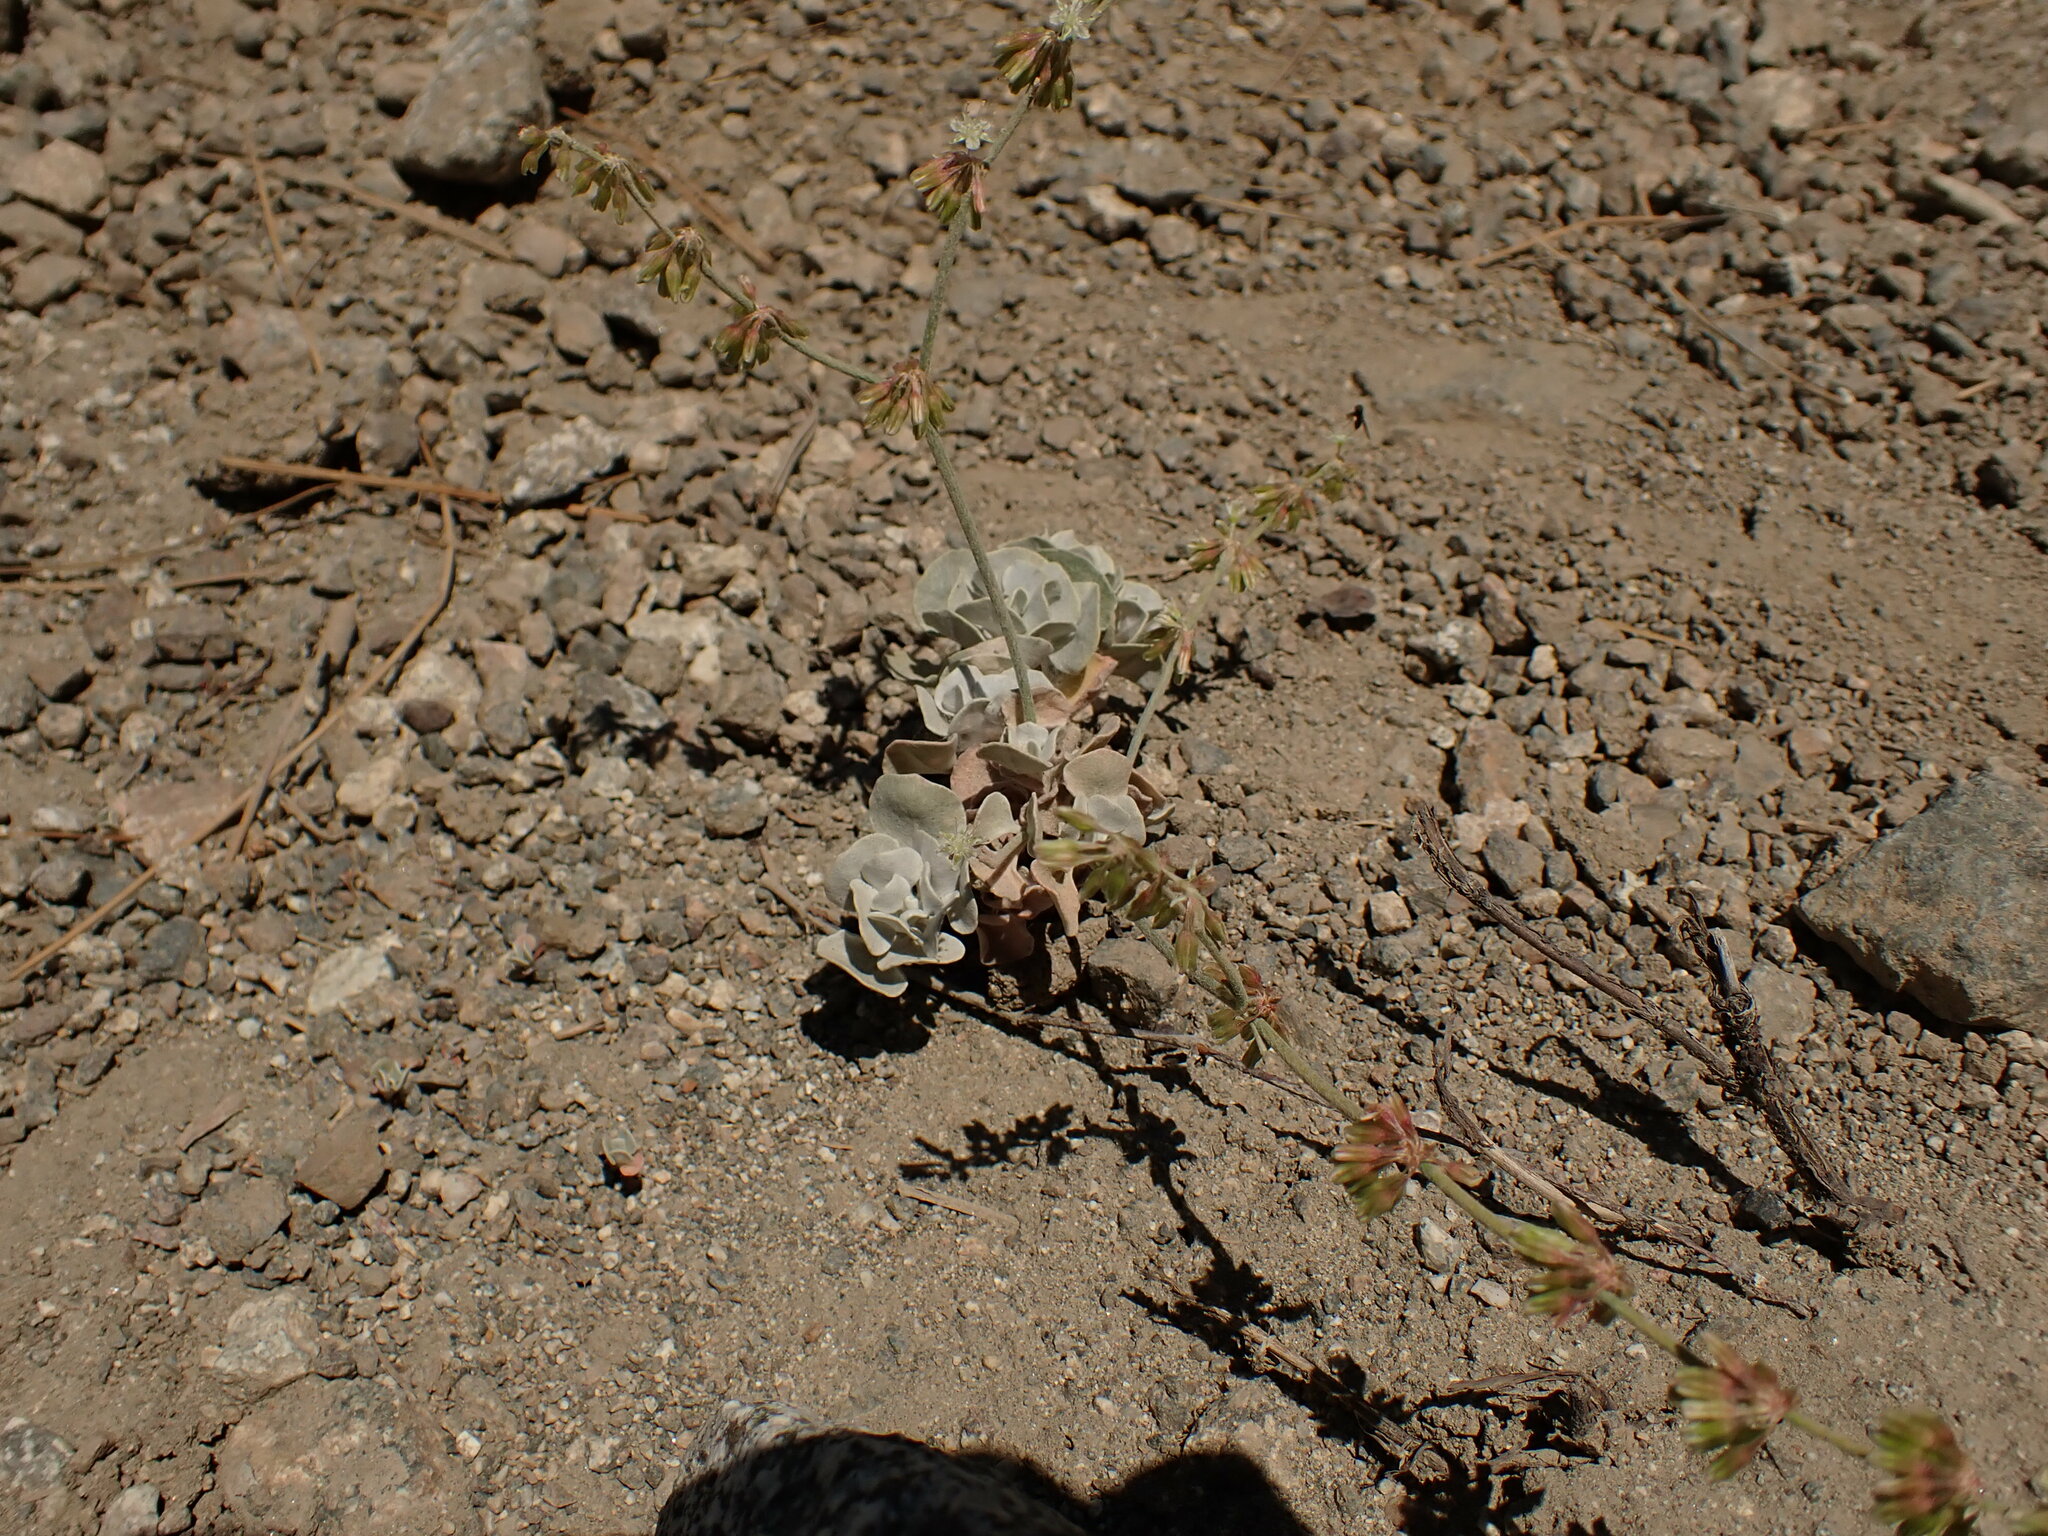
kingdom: Plantae
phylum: Tracheophyta
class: Magnoliopsida
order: Caryophyllales
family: Polygonaceae
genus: Eriogonum
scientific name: Eriogonum saxatile
